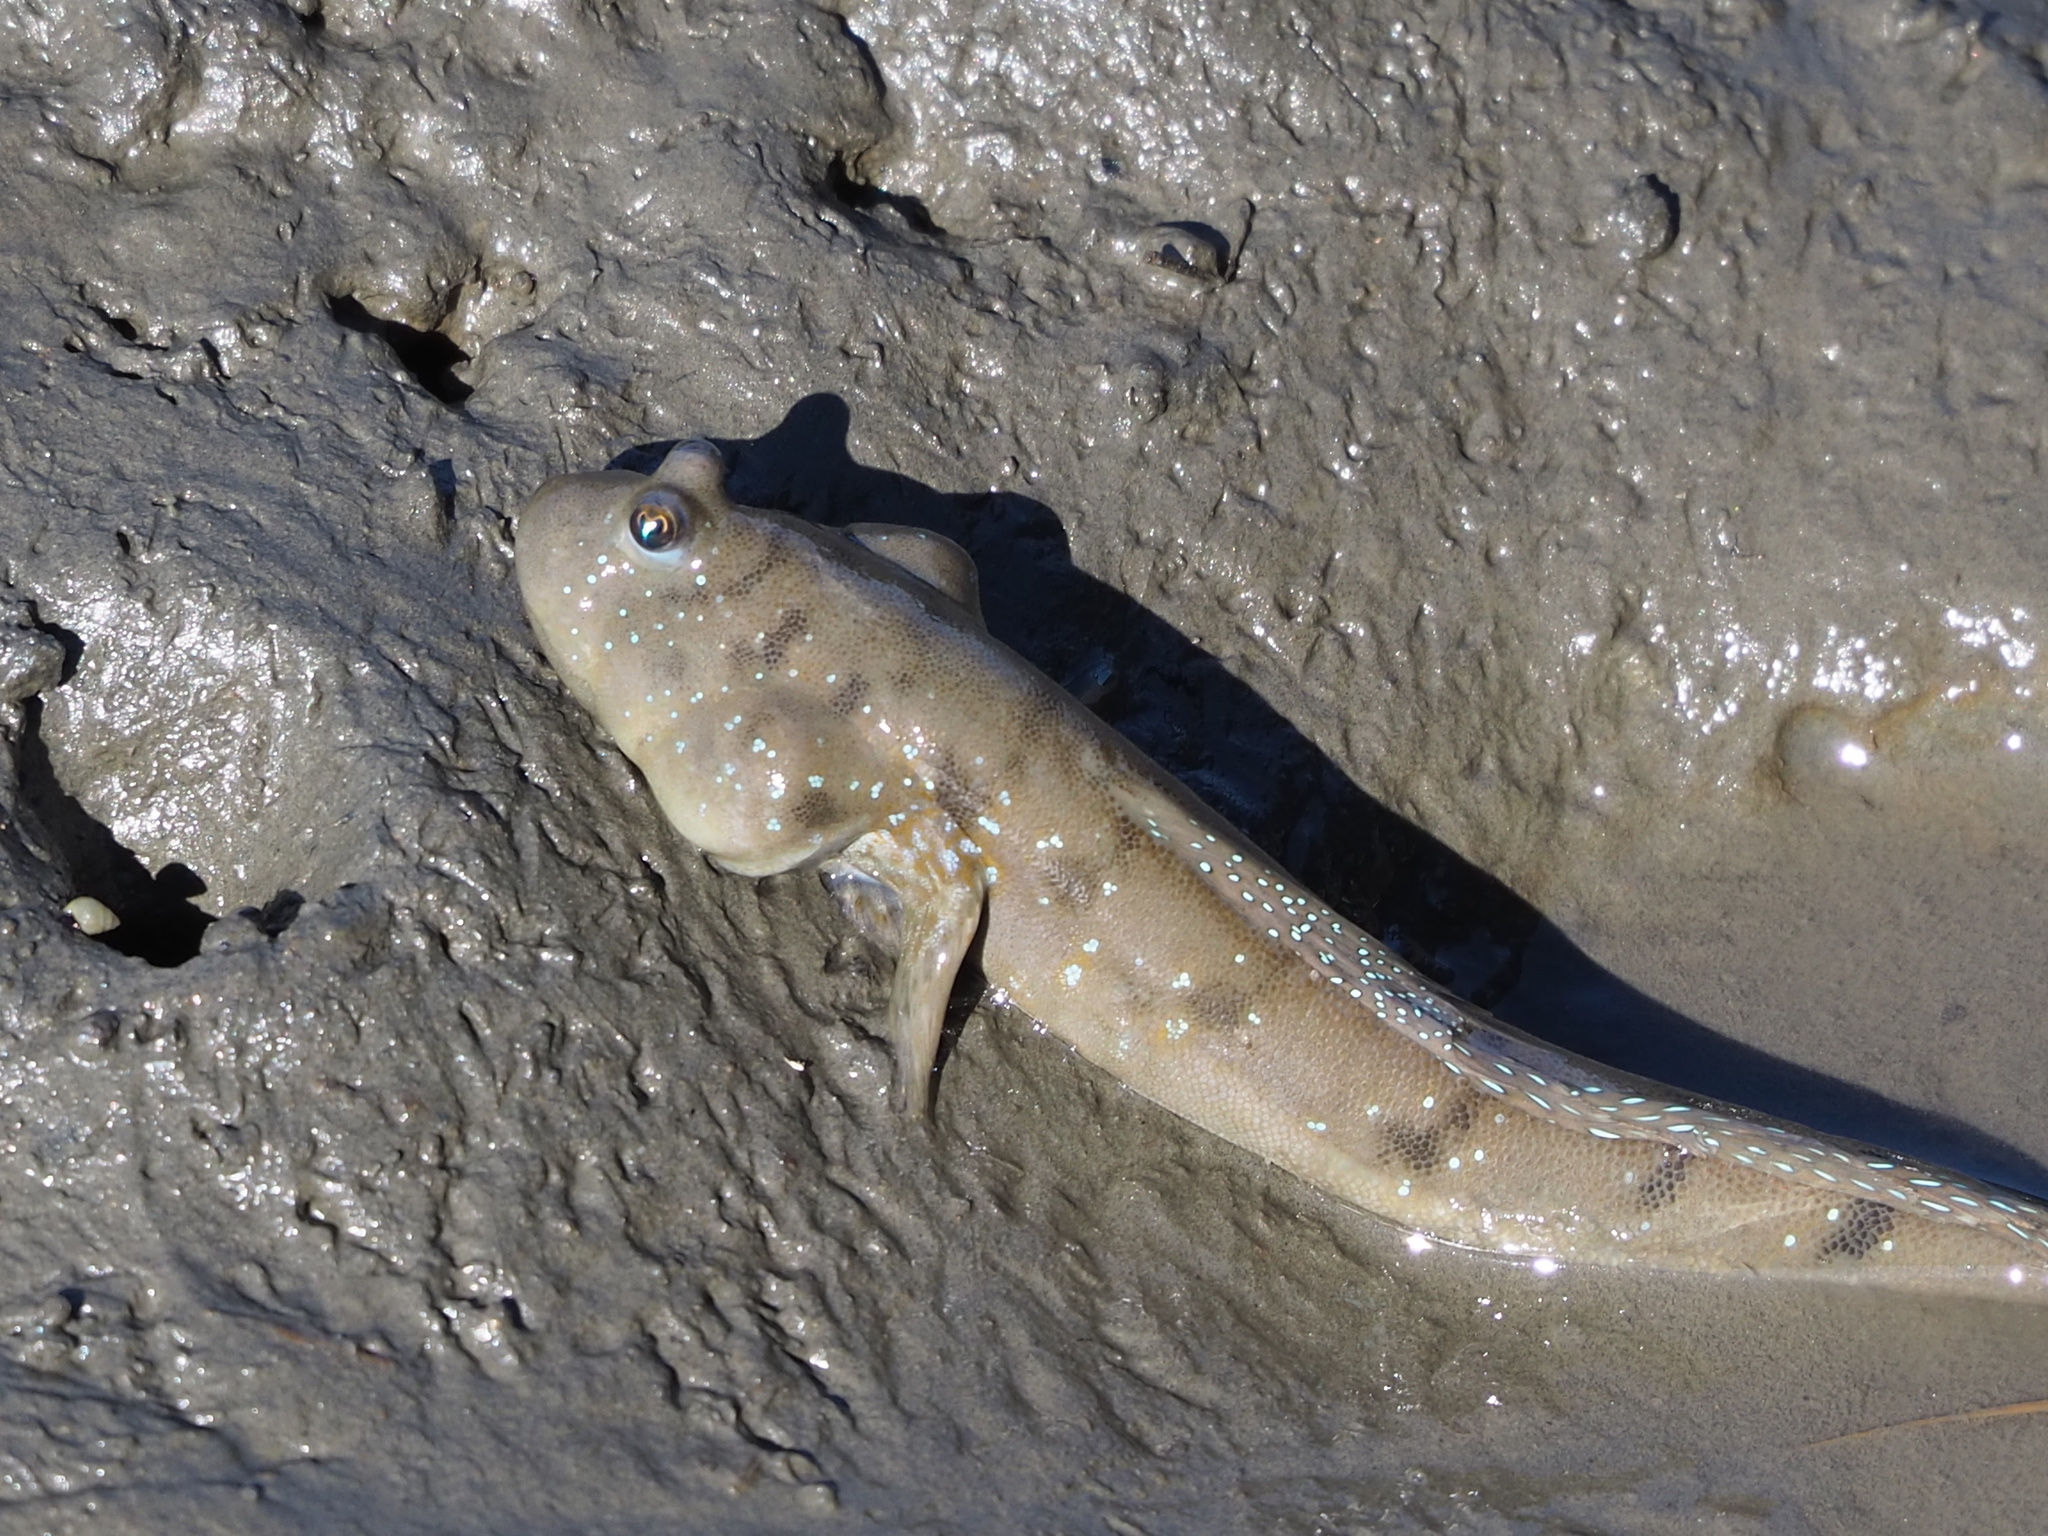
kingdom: Animalia
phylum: Chordata
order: Perciformes
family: Gobiidae
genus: Boleophthalmus
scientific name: Boleophthalmus pectinirostris
